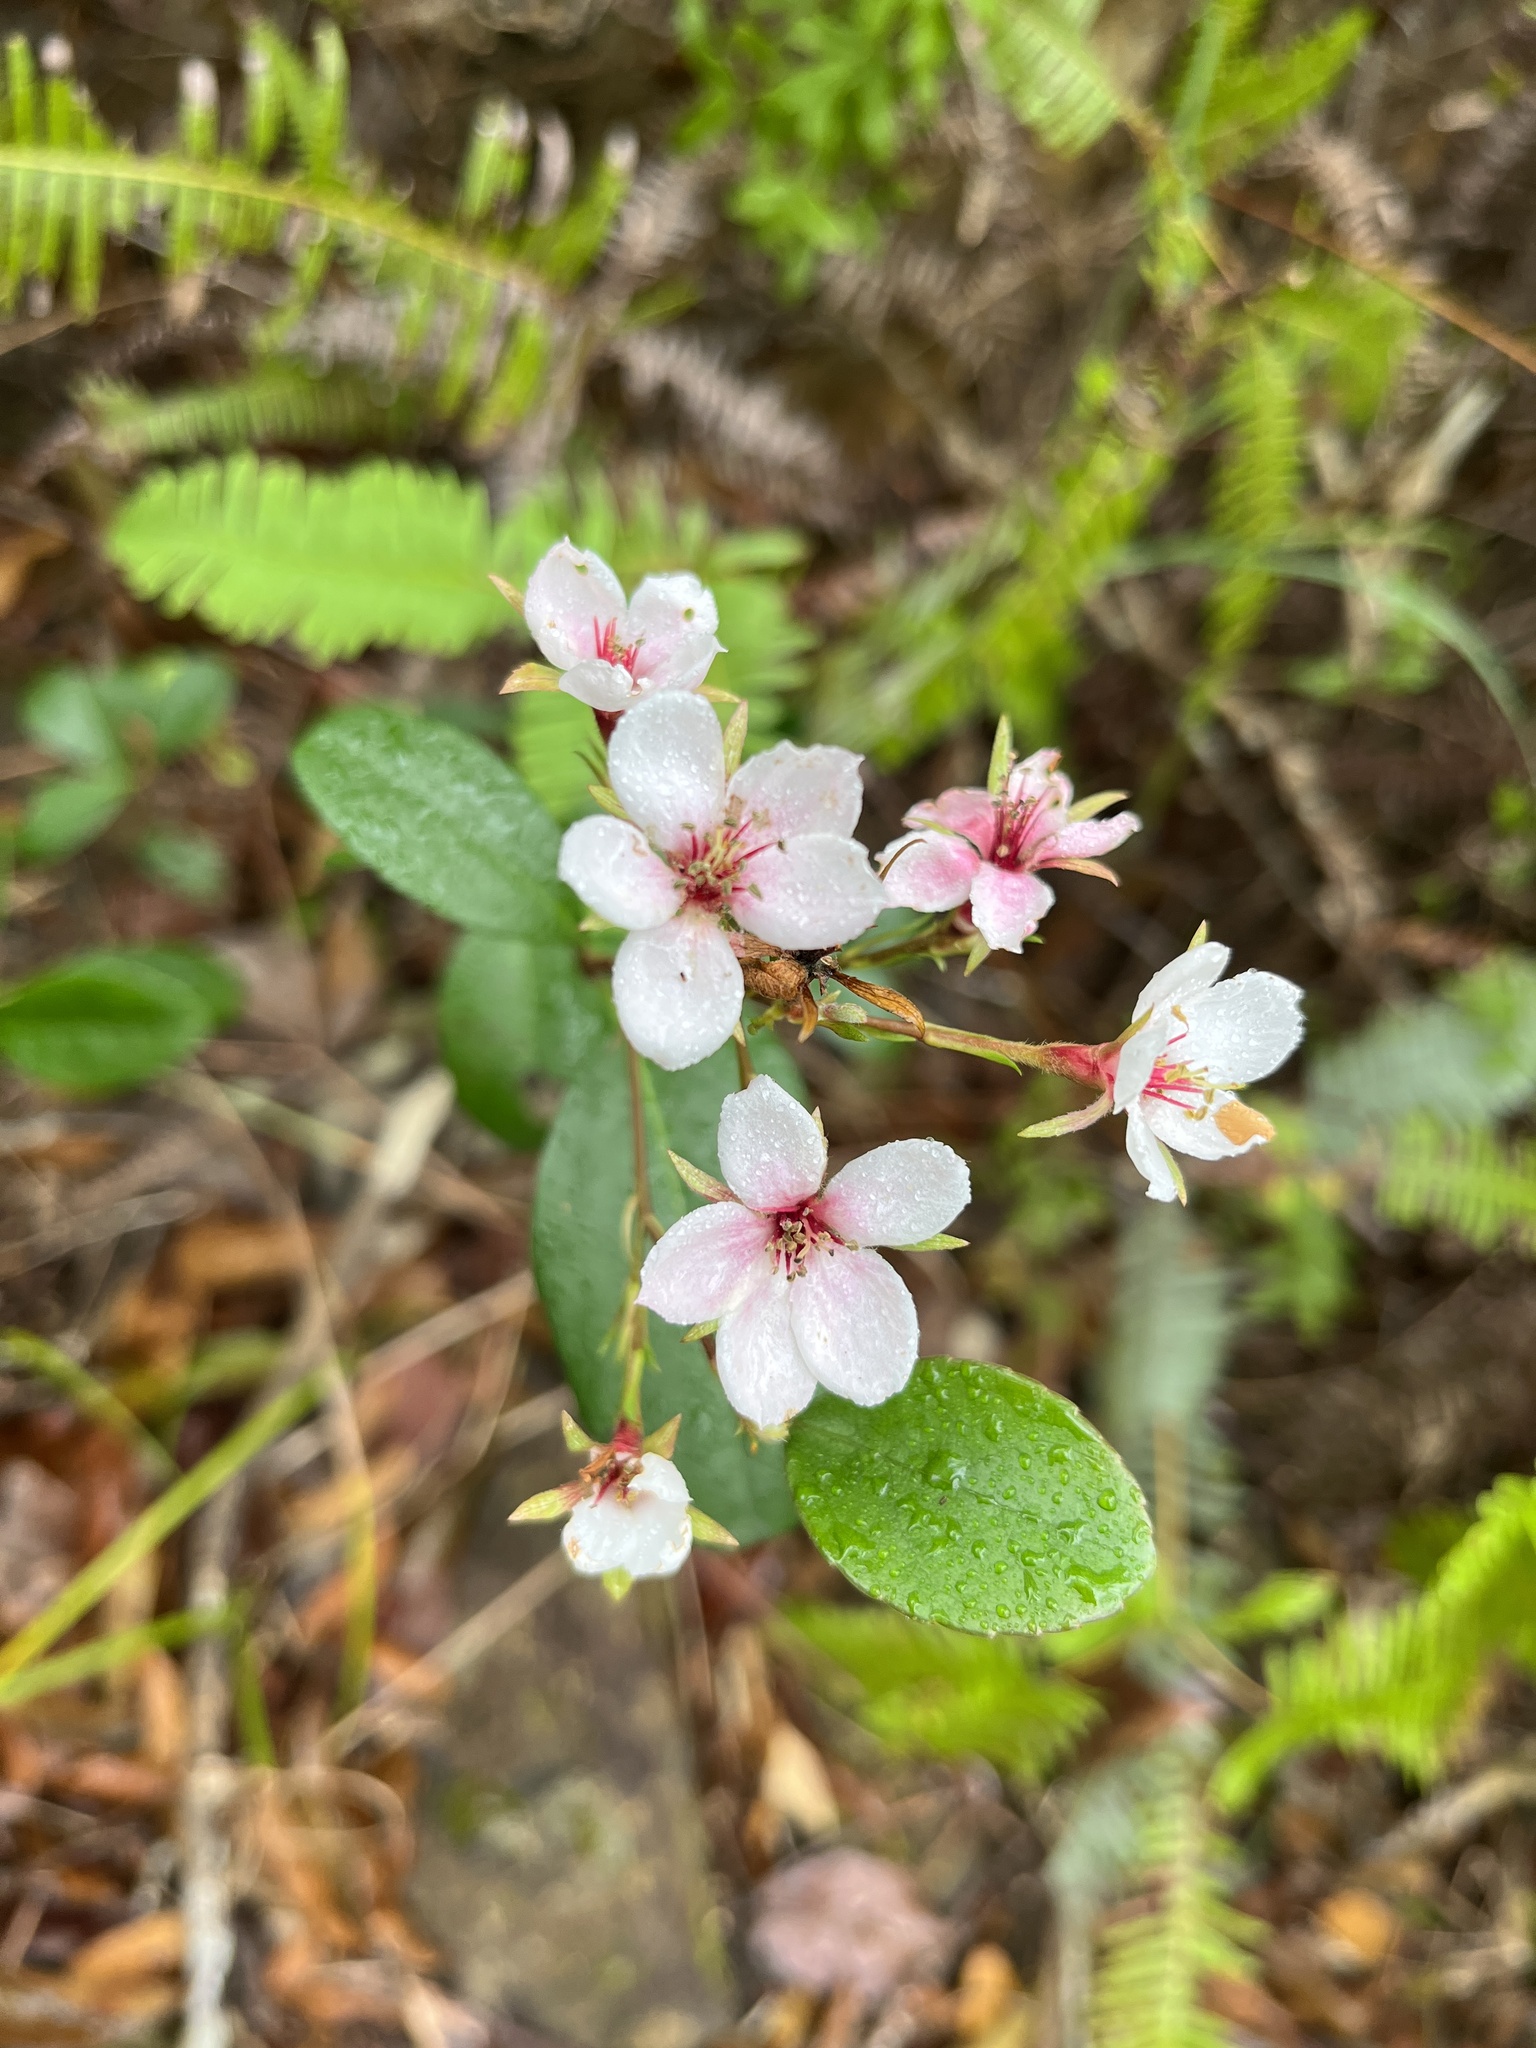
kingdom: Plantae
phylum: Tracheophyta
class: Magnoliopsida
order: Rosales
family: Rosaceae
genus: Rhaphiolepis
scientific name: Rhaphiolepis indica
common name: India-hawthorn
